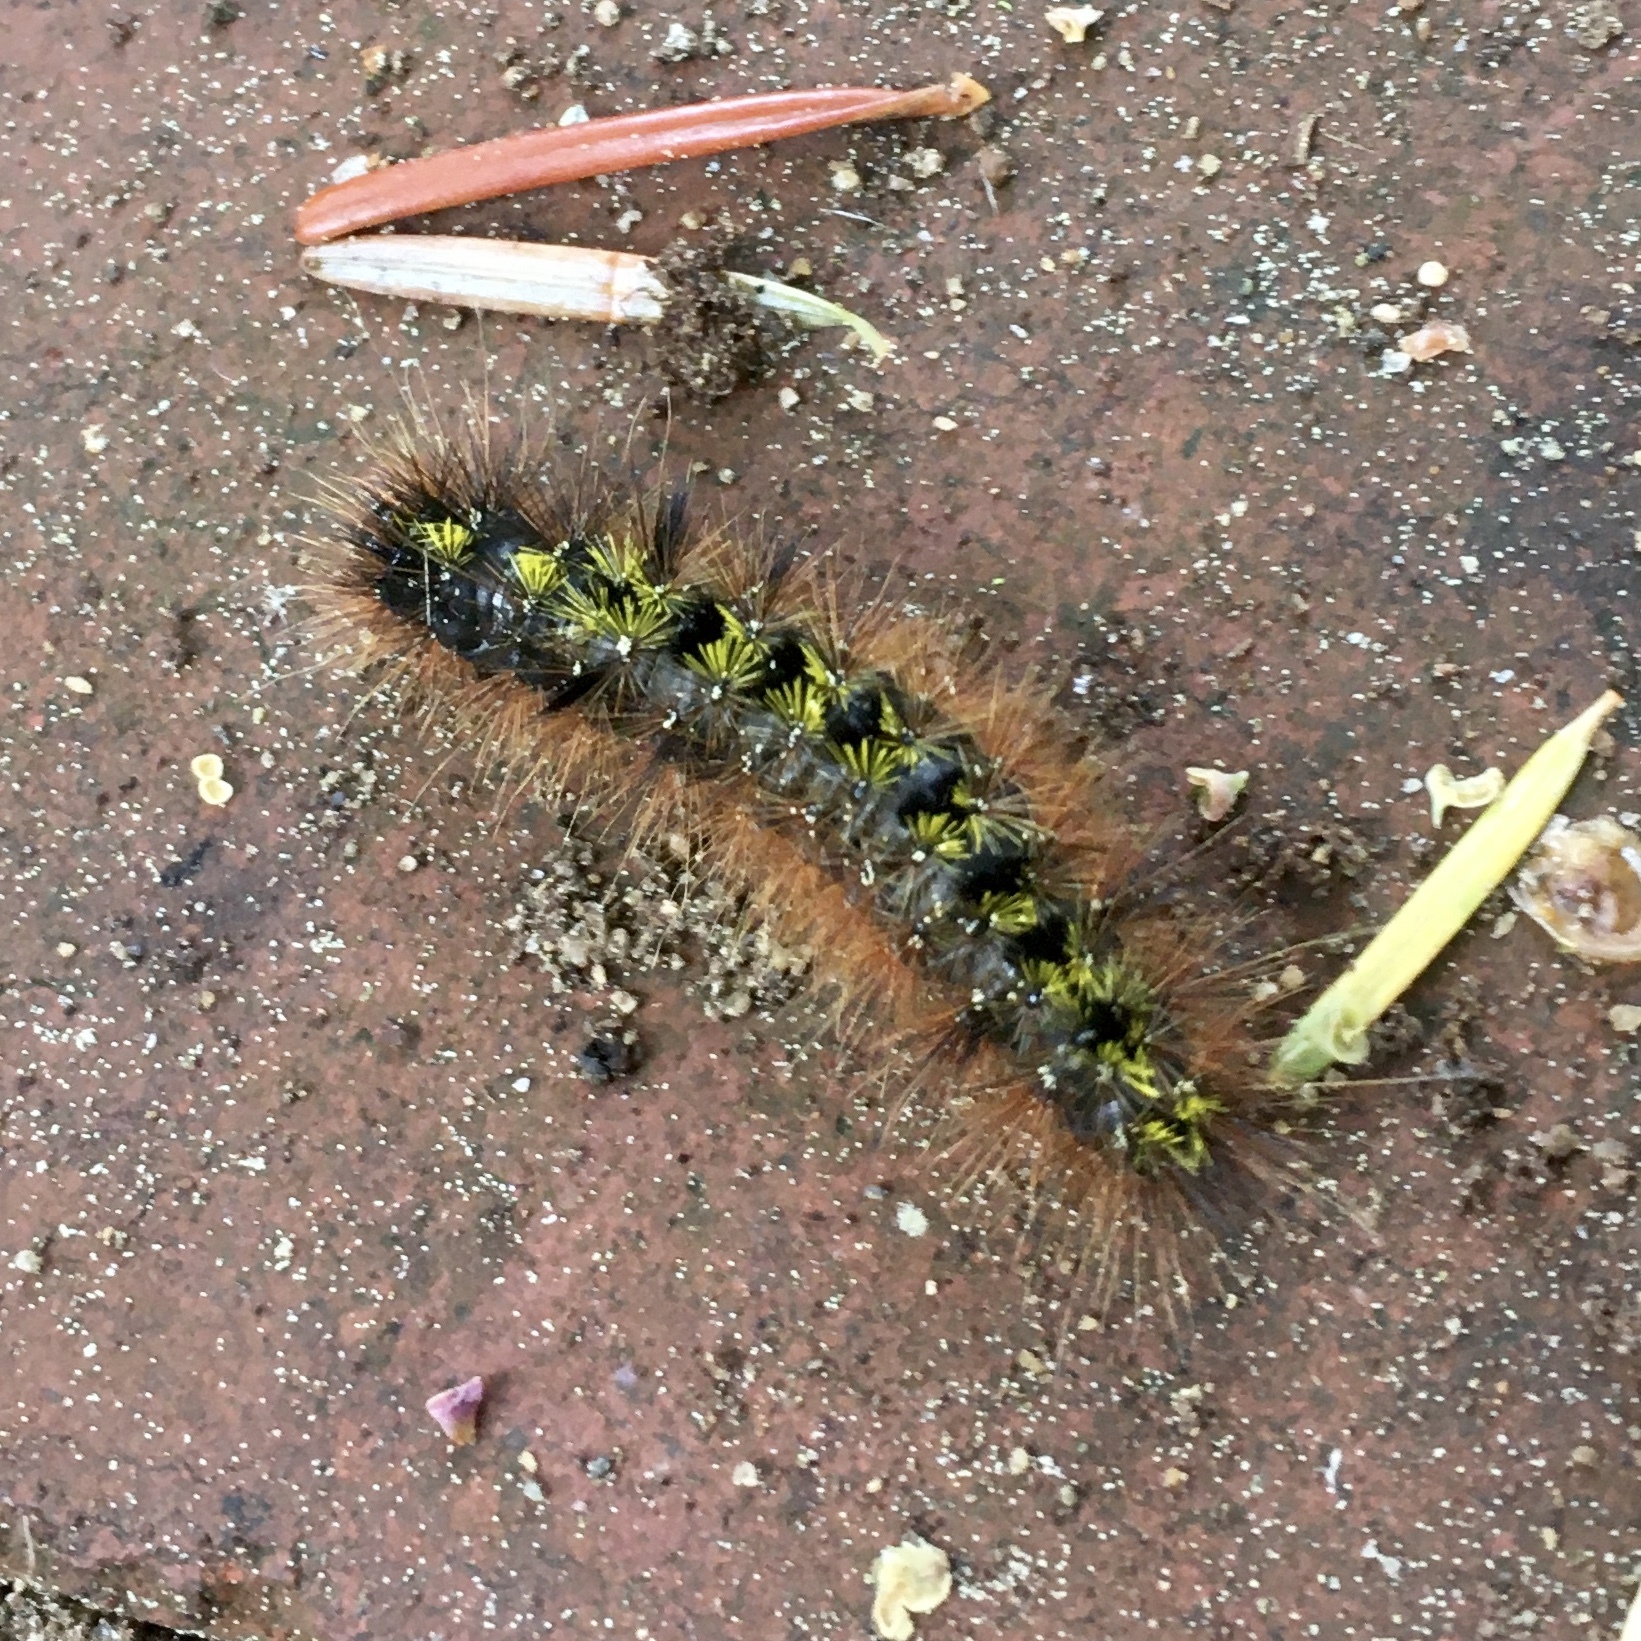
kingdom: Animalia
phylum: Arthropoda
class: Insecta
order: Lepidoptera
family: Erebidae
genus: Lophocampa
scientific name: Lophocampa argentata
